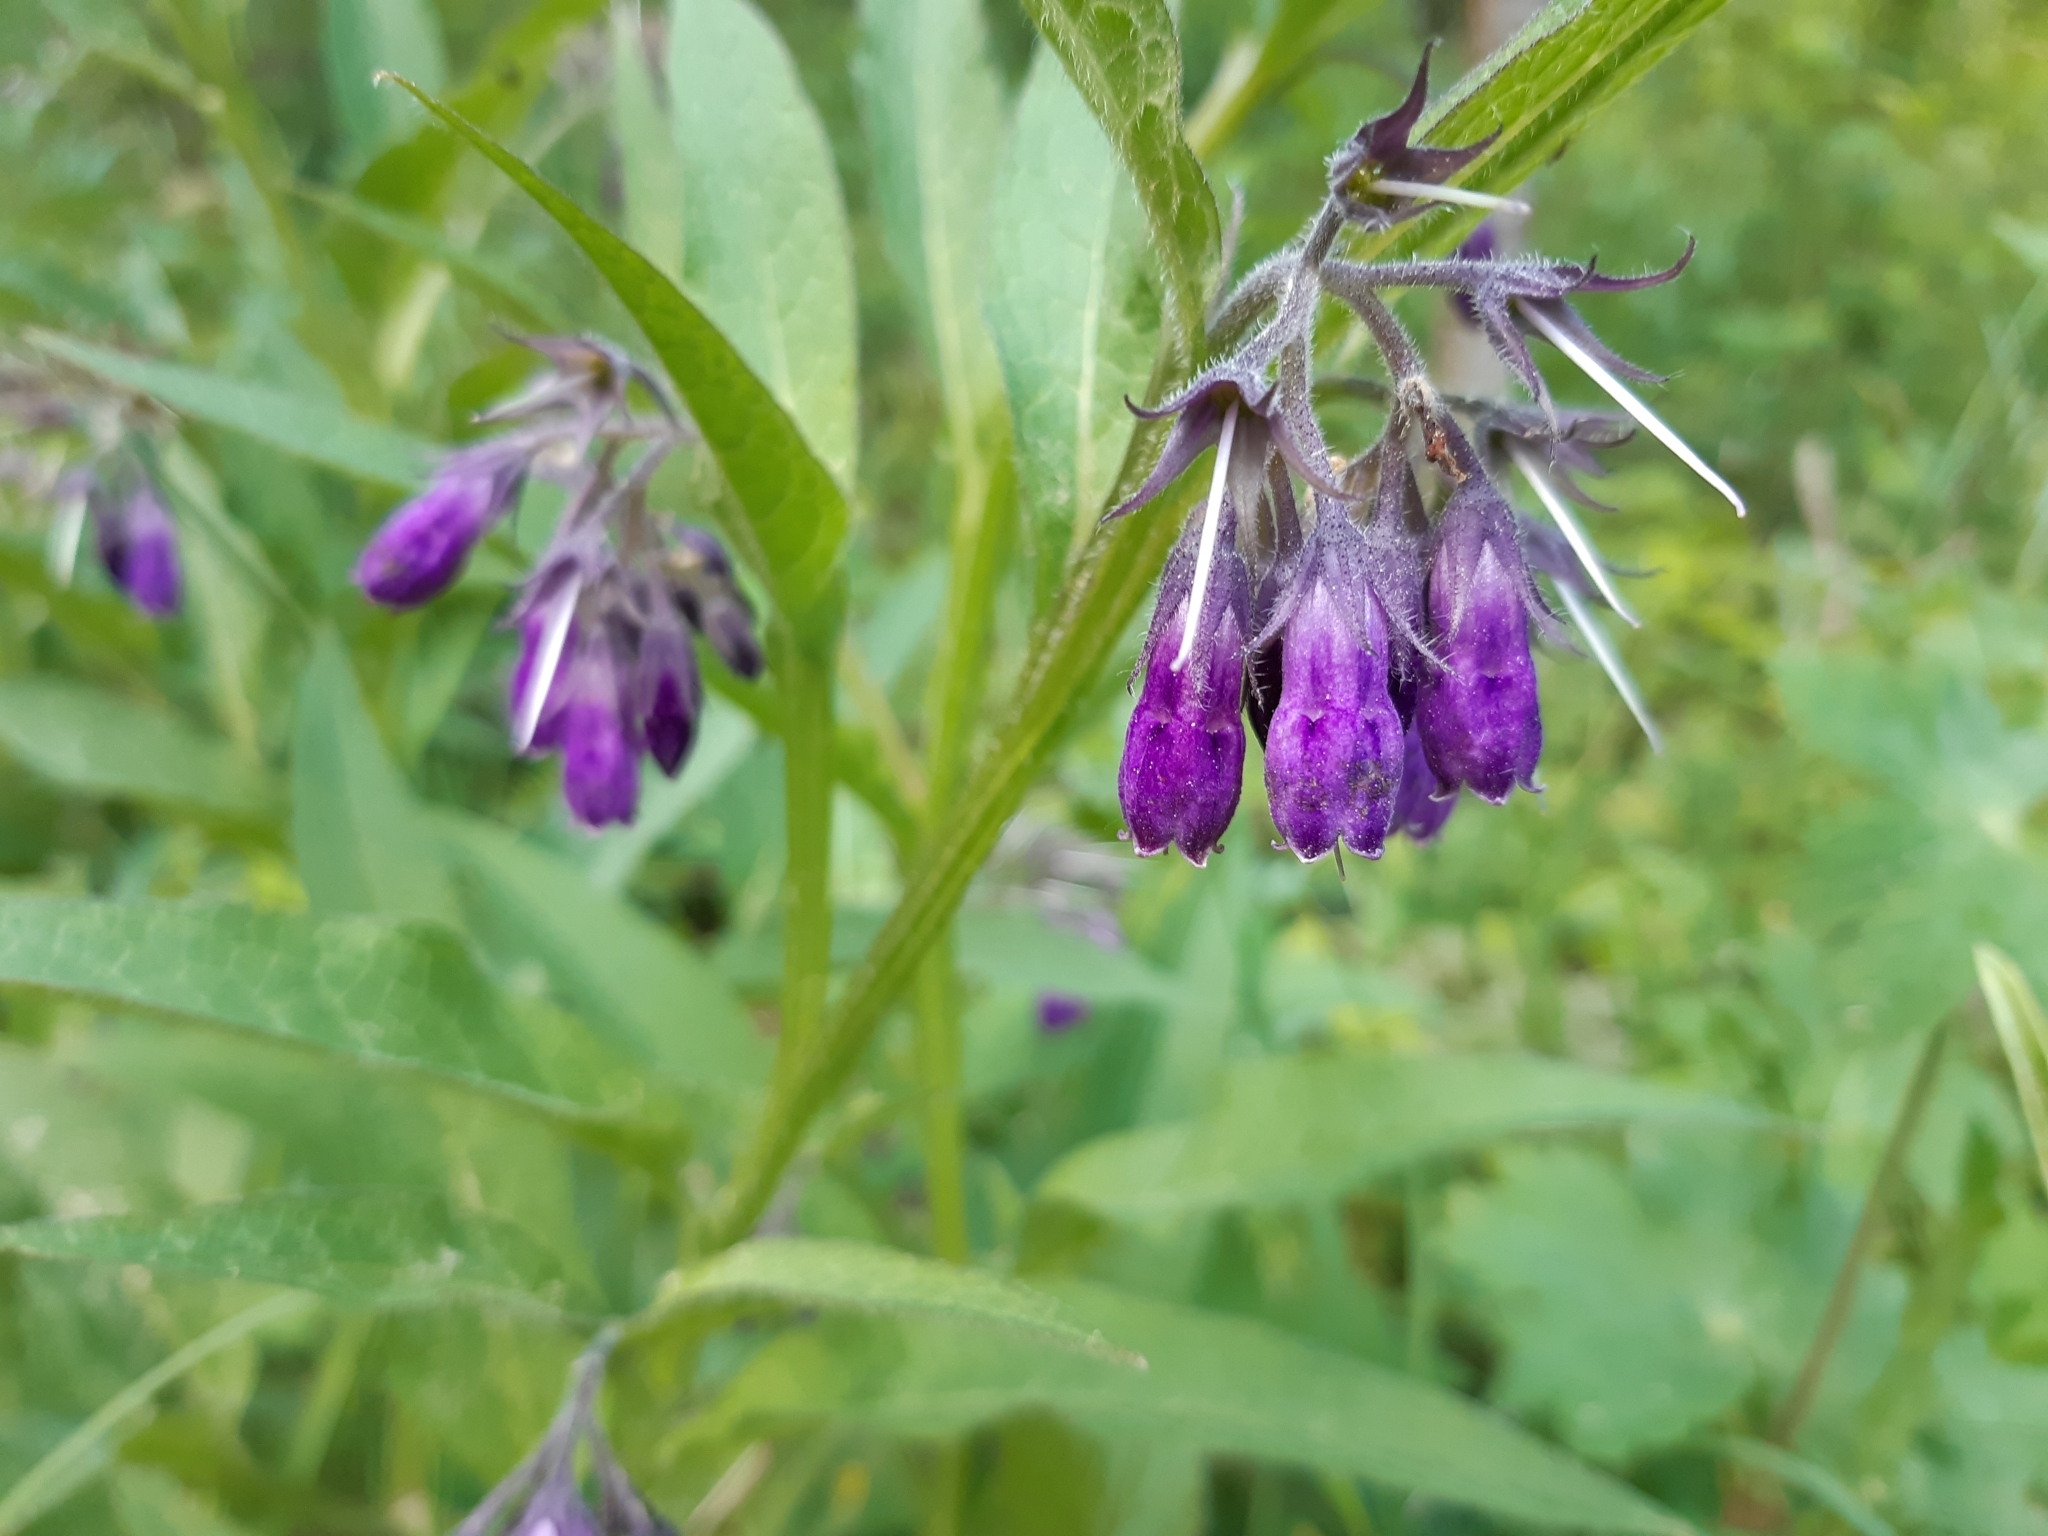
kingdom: Plantae
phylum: Tracheophyta
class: Magnoliopsida
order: Boraginales
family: Boraginaceae
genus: Symphytum
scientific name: Symphytum officinale
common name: Common comfrey
